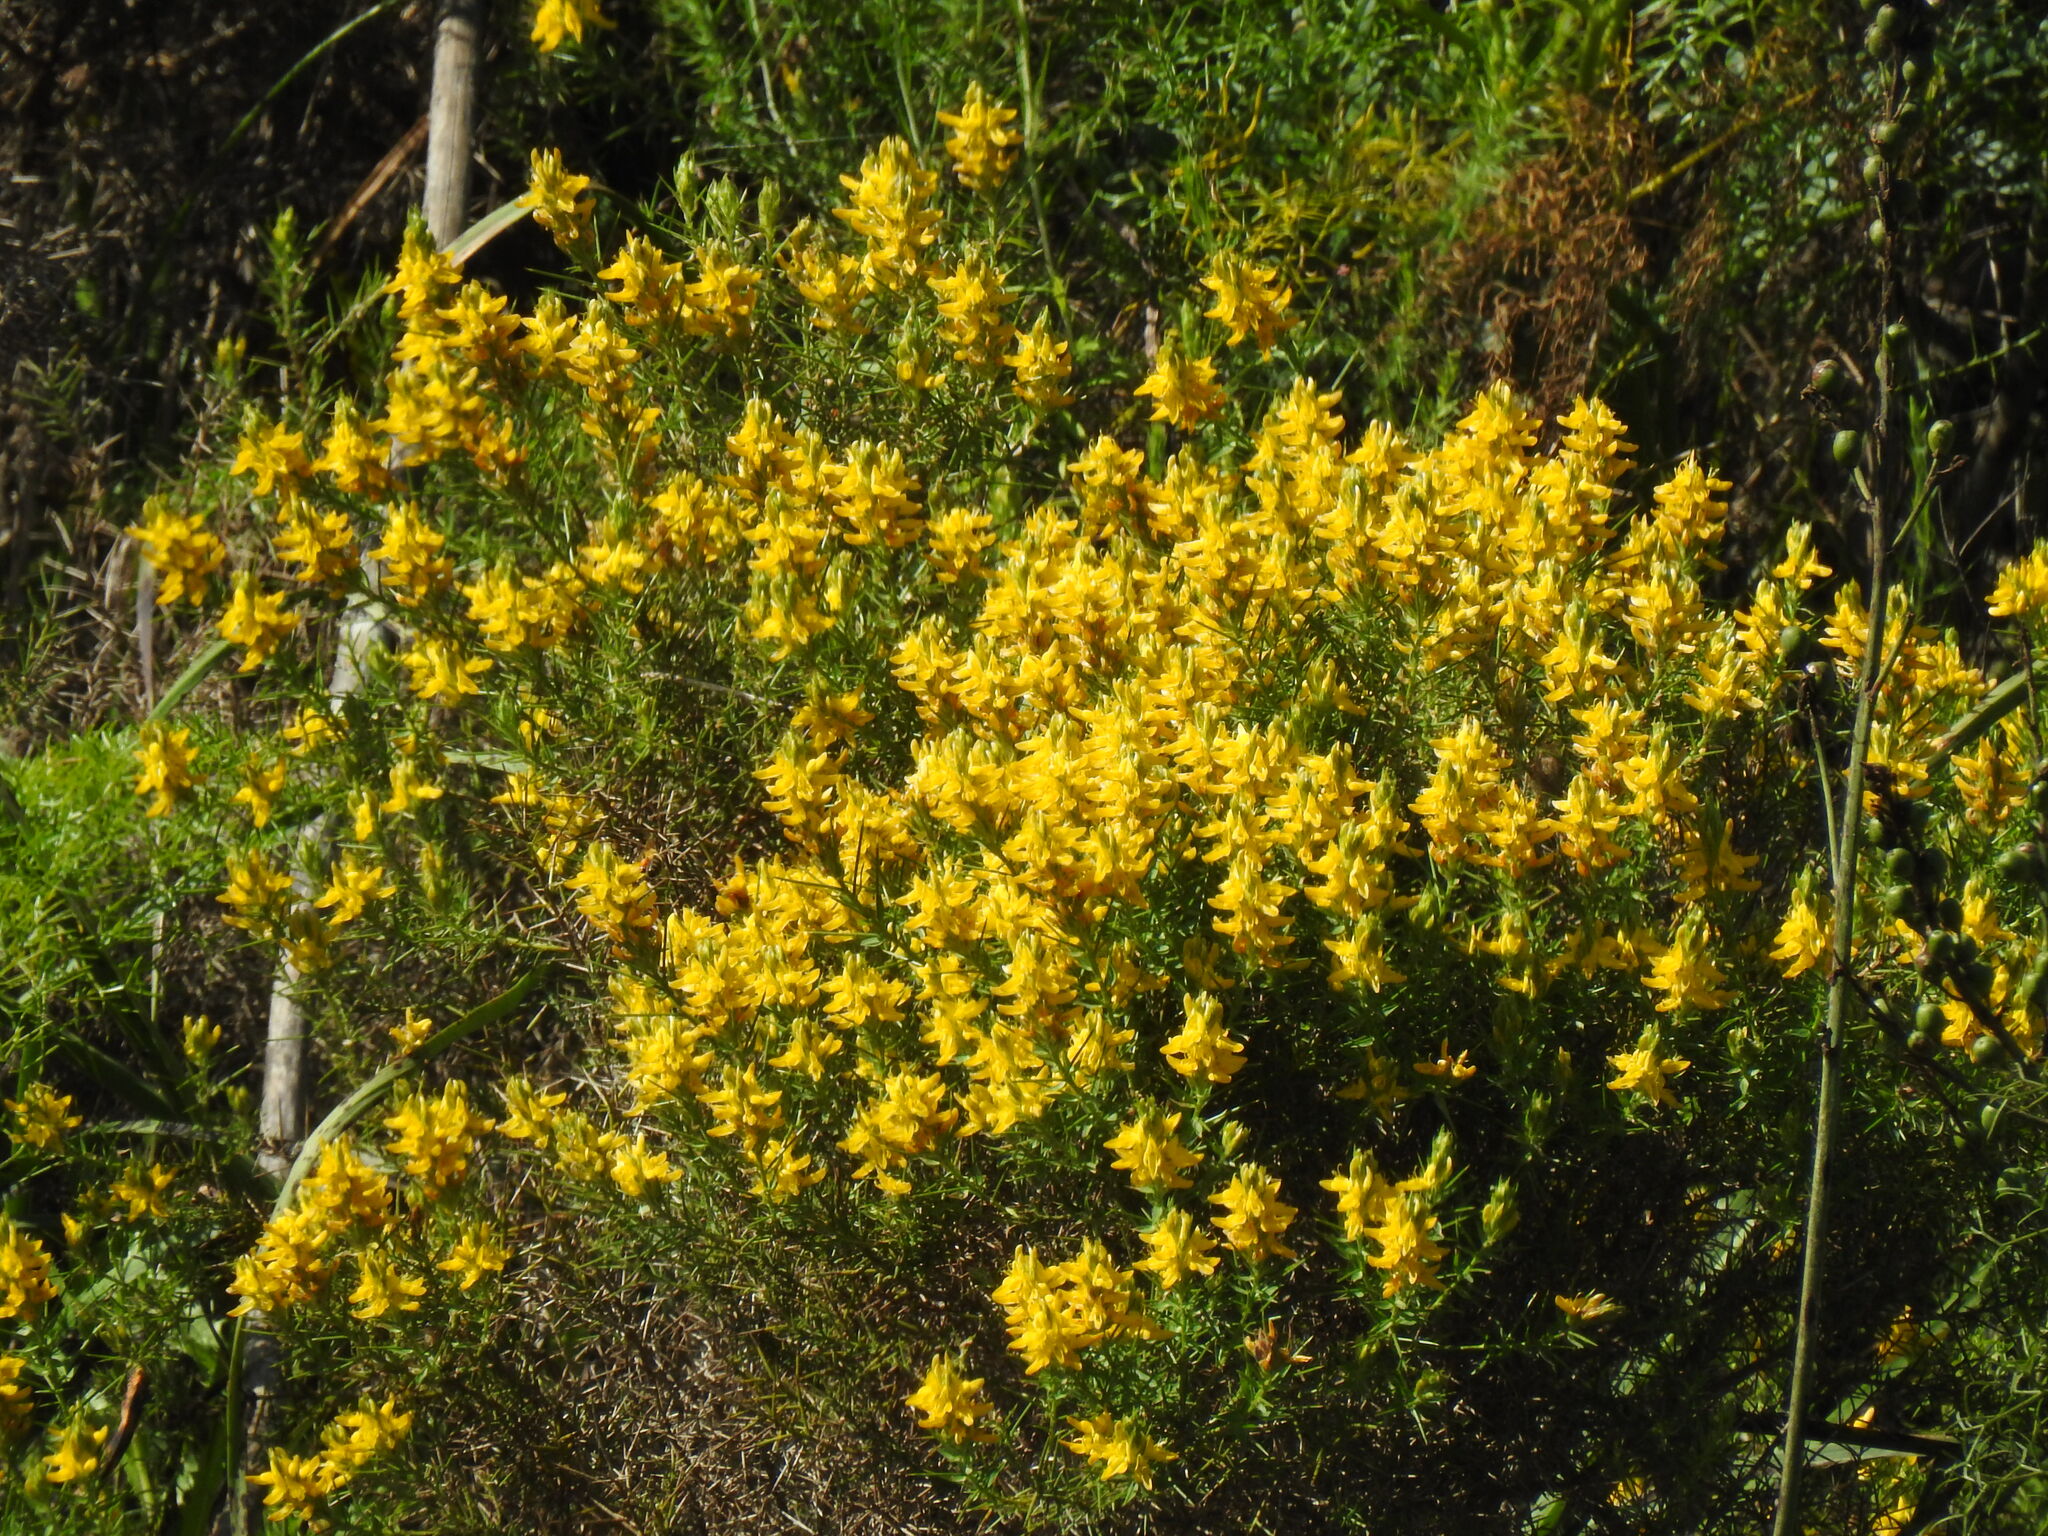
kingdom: Plantae
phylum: Tracheophyta
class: Magnoliopsida
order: Fabales
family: Fabaceae
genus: Genista
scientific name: Genista hirsuta
